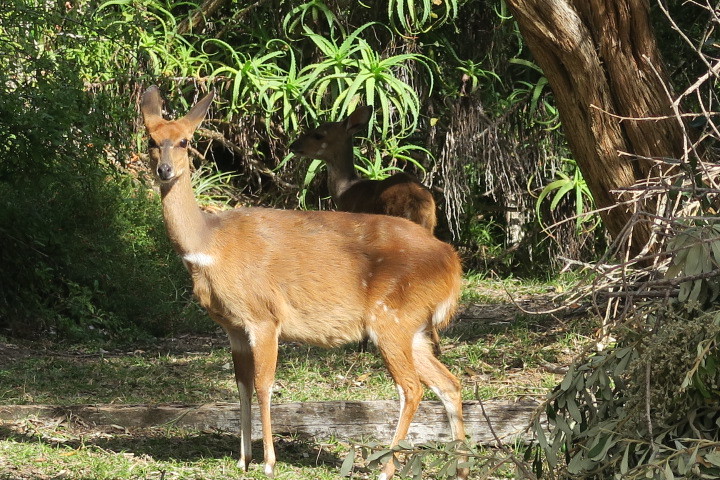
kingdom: Animalia
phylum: Chordata
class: Mammalia
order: Artiodactyla
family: Bovidae
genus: Tragelaphus
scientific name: Tragelaphus scriptus
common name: Bushbuck
